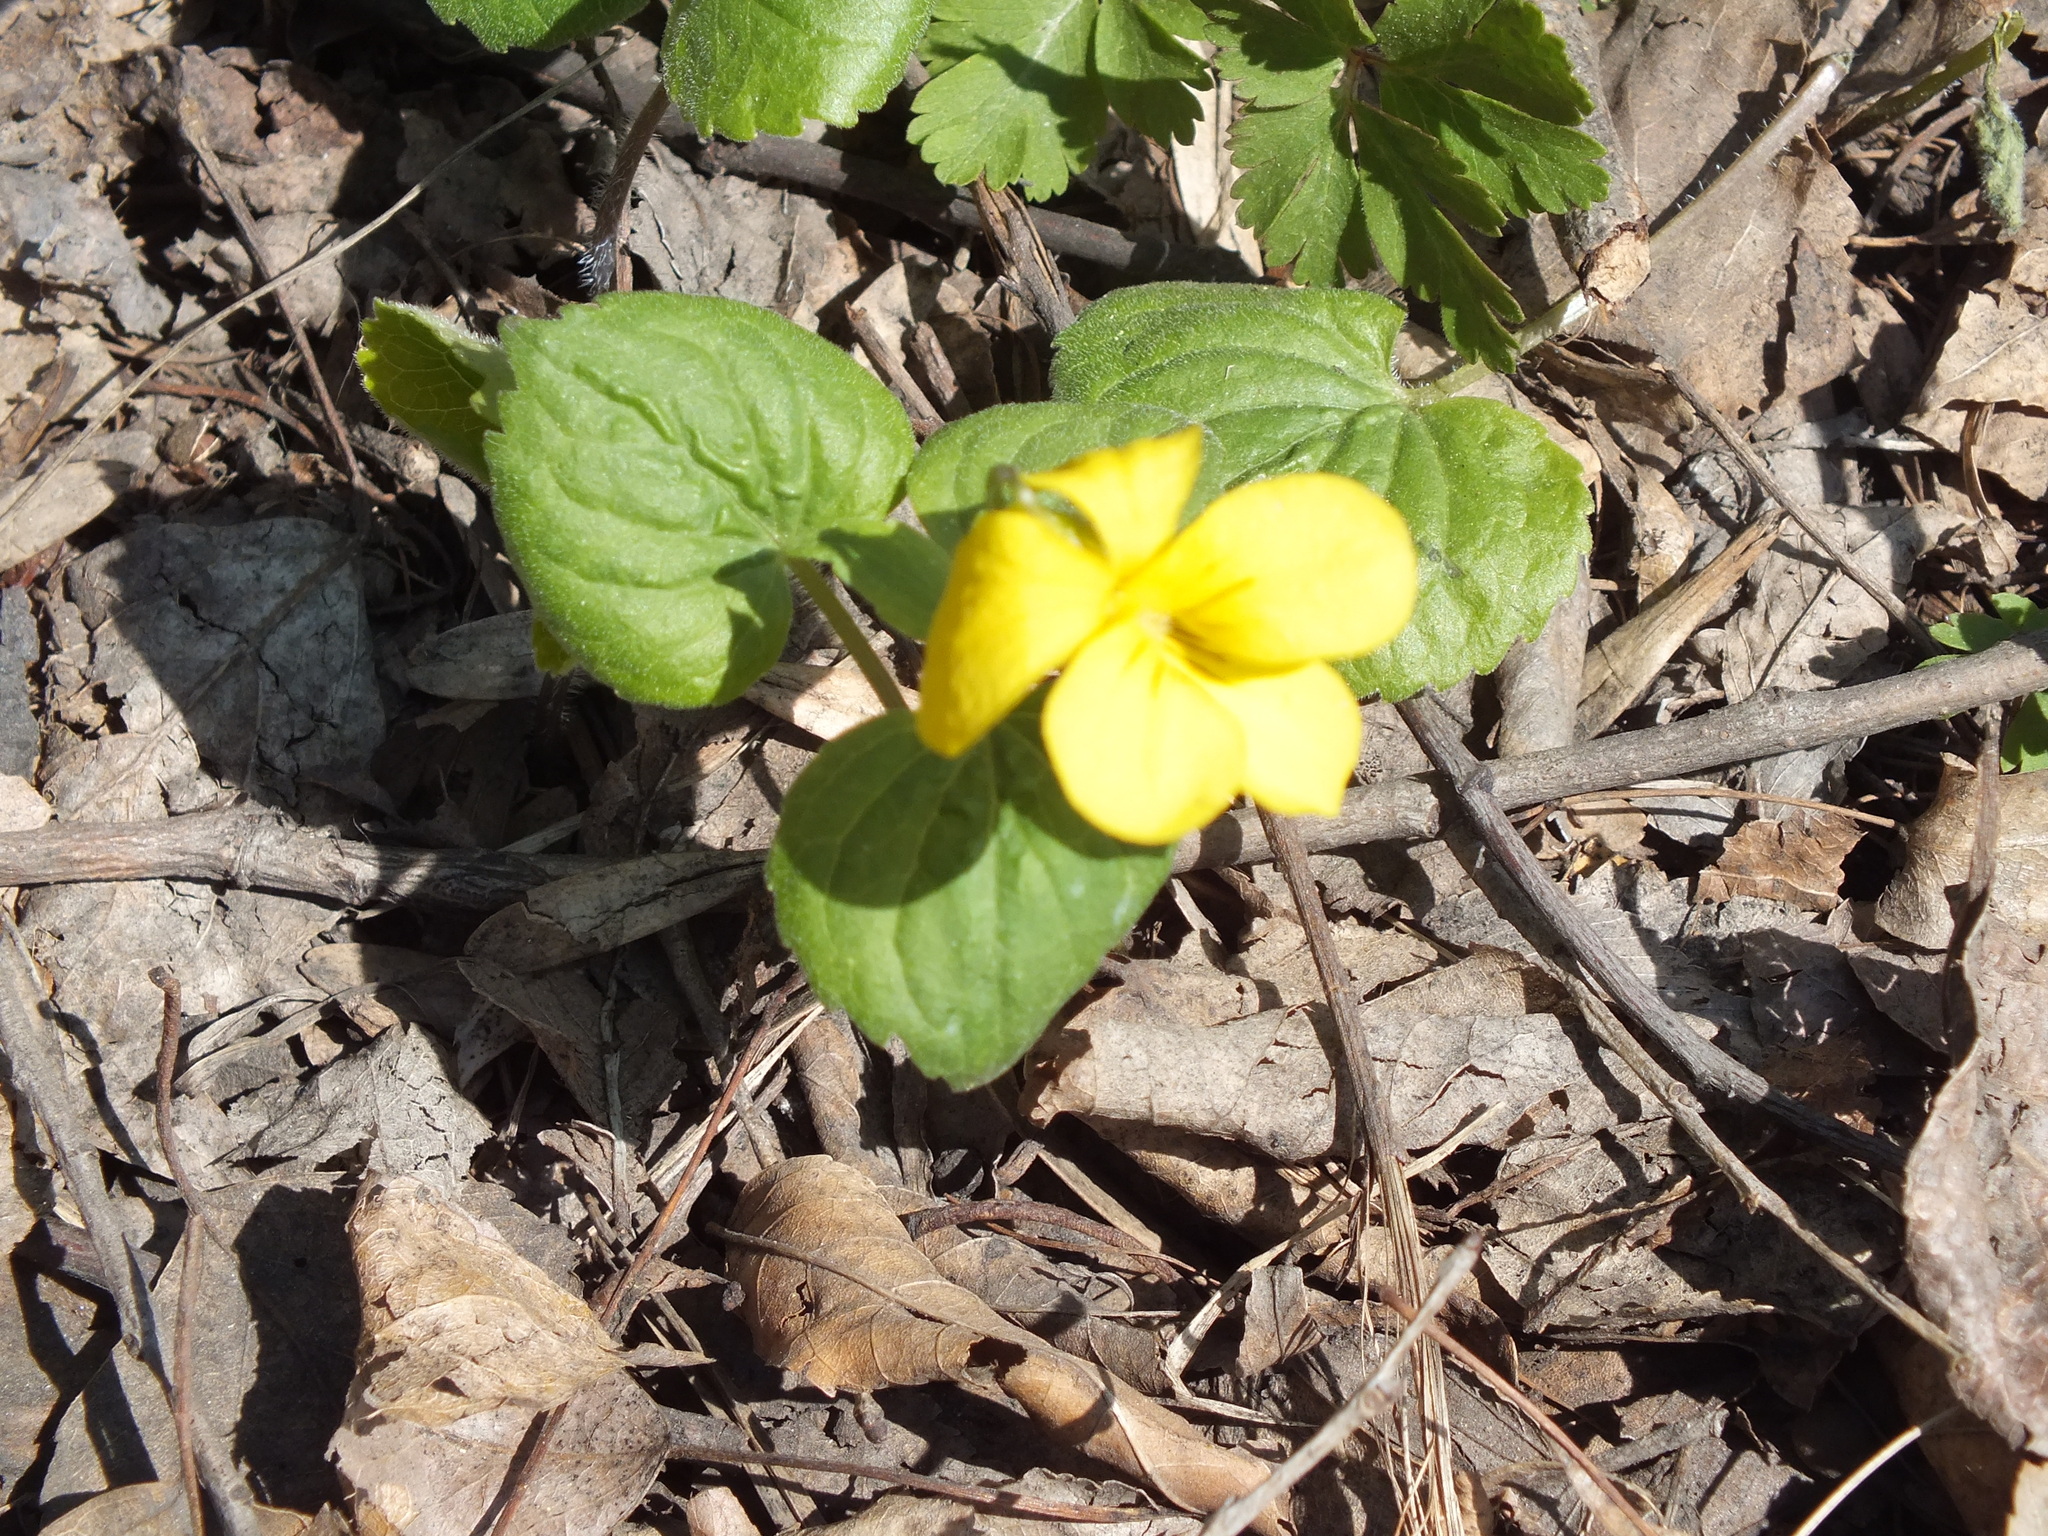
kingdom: Plantae
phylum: Tracheophyta
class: Magnoliopsida
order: Malpighiales
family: Violaceae
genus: Viola
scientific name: Viola uniflora
